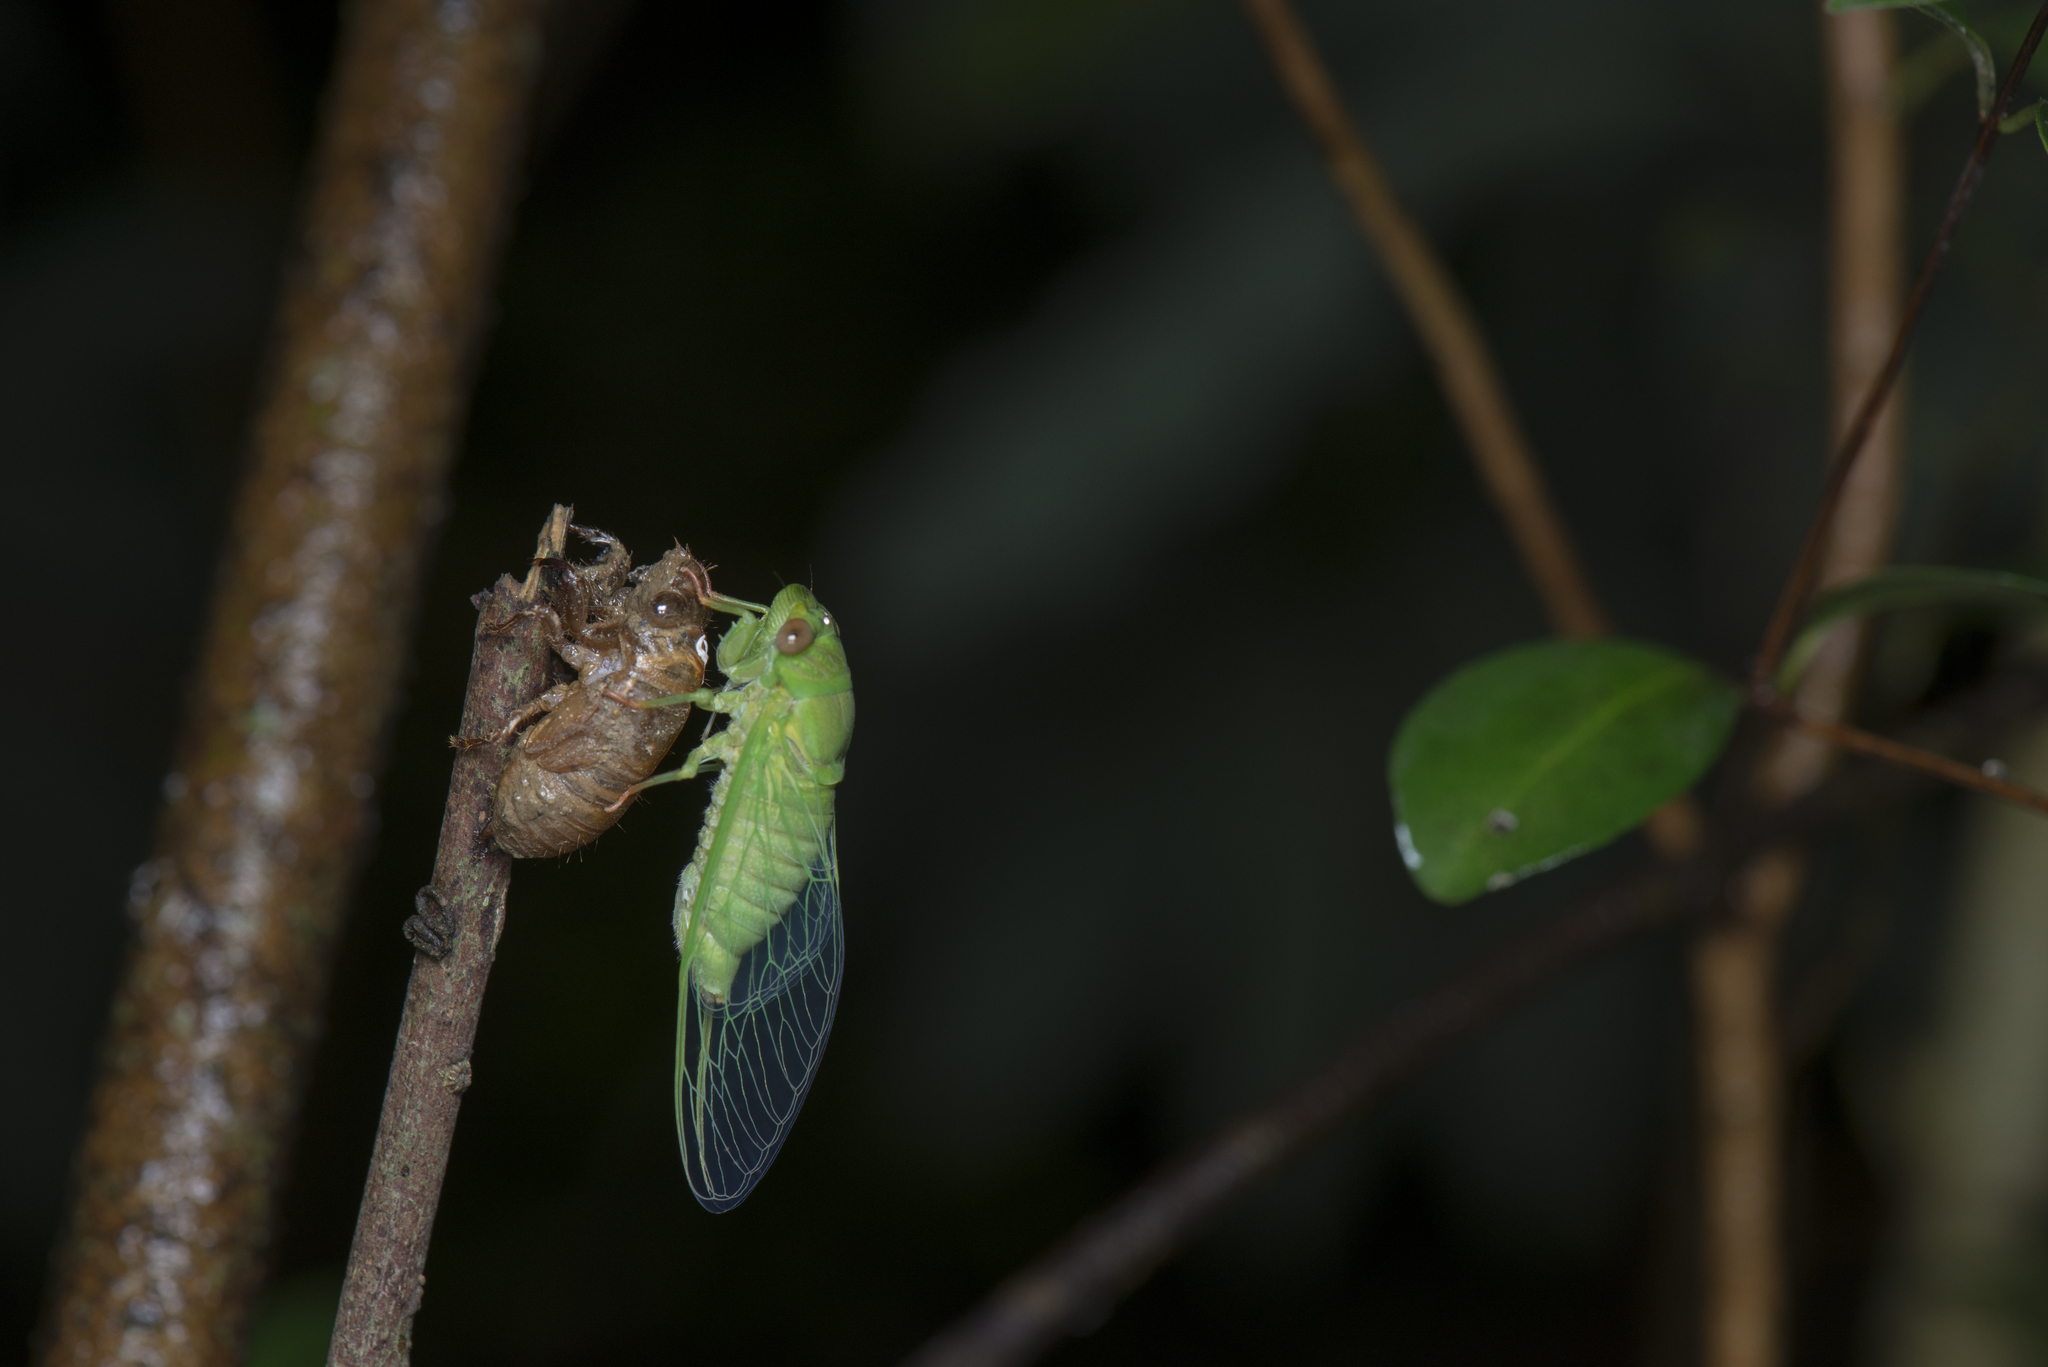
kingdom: Animalia
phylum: Arthropoda
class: Insecta
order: Hemiptera
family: Cicadidae
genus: Chremistica
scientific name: Chremistica ochracea
